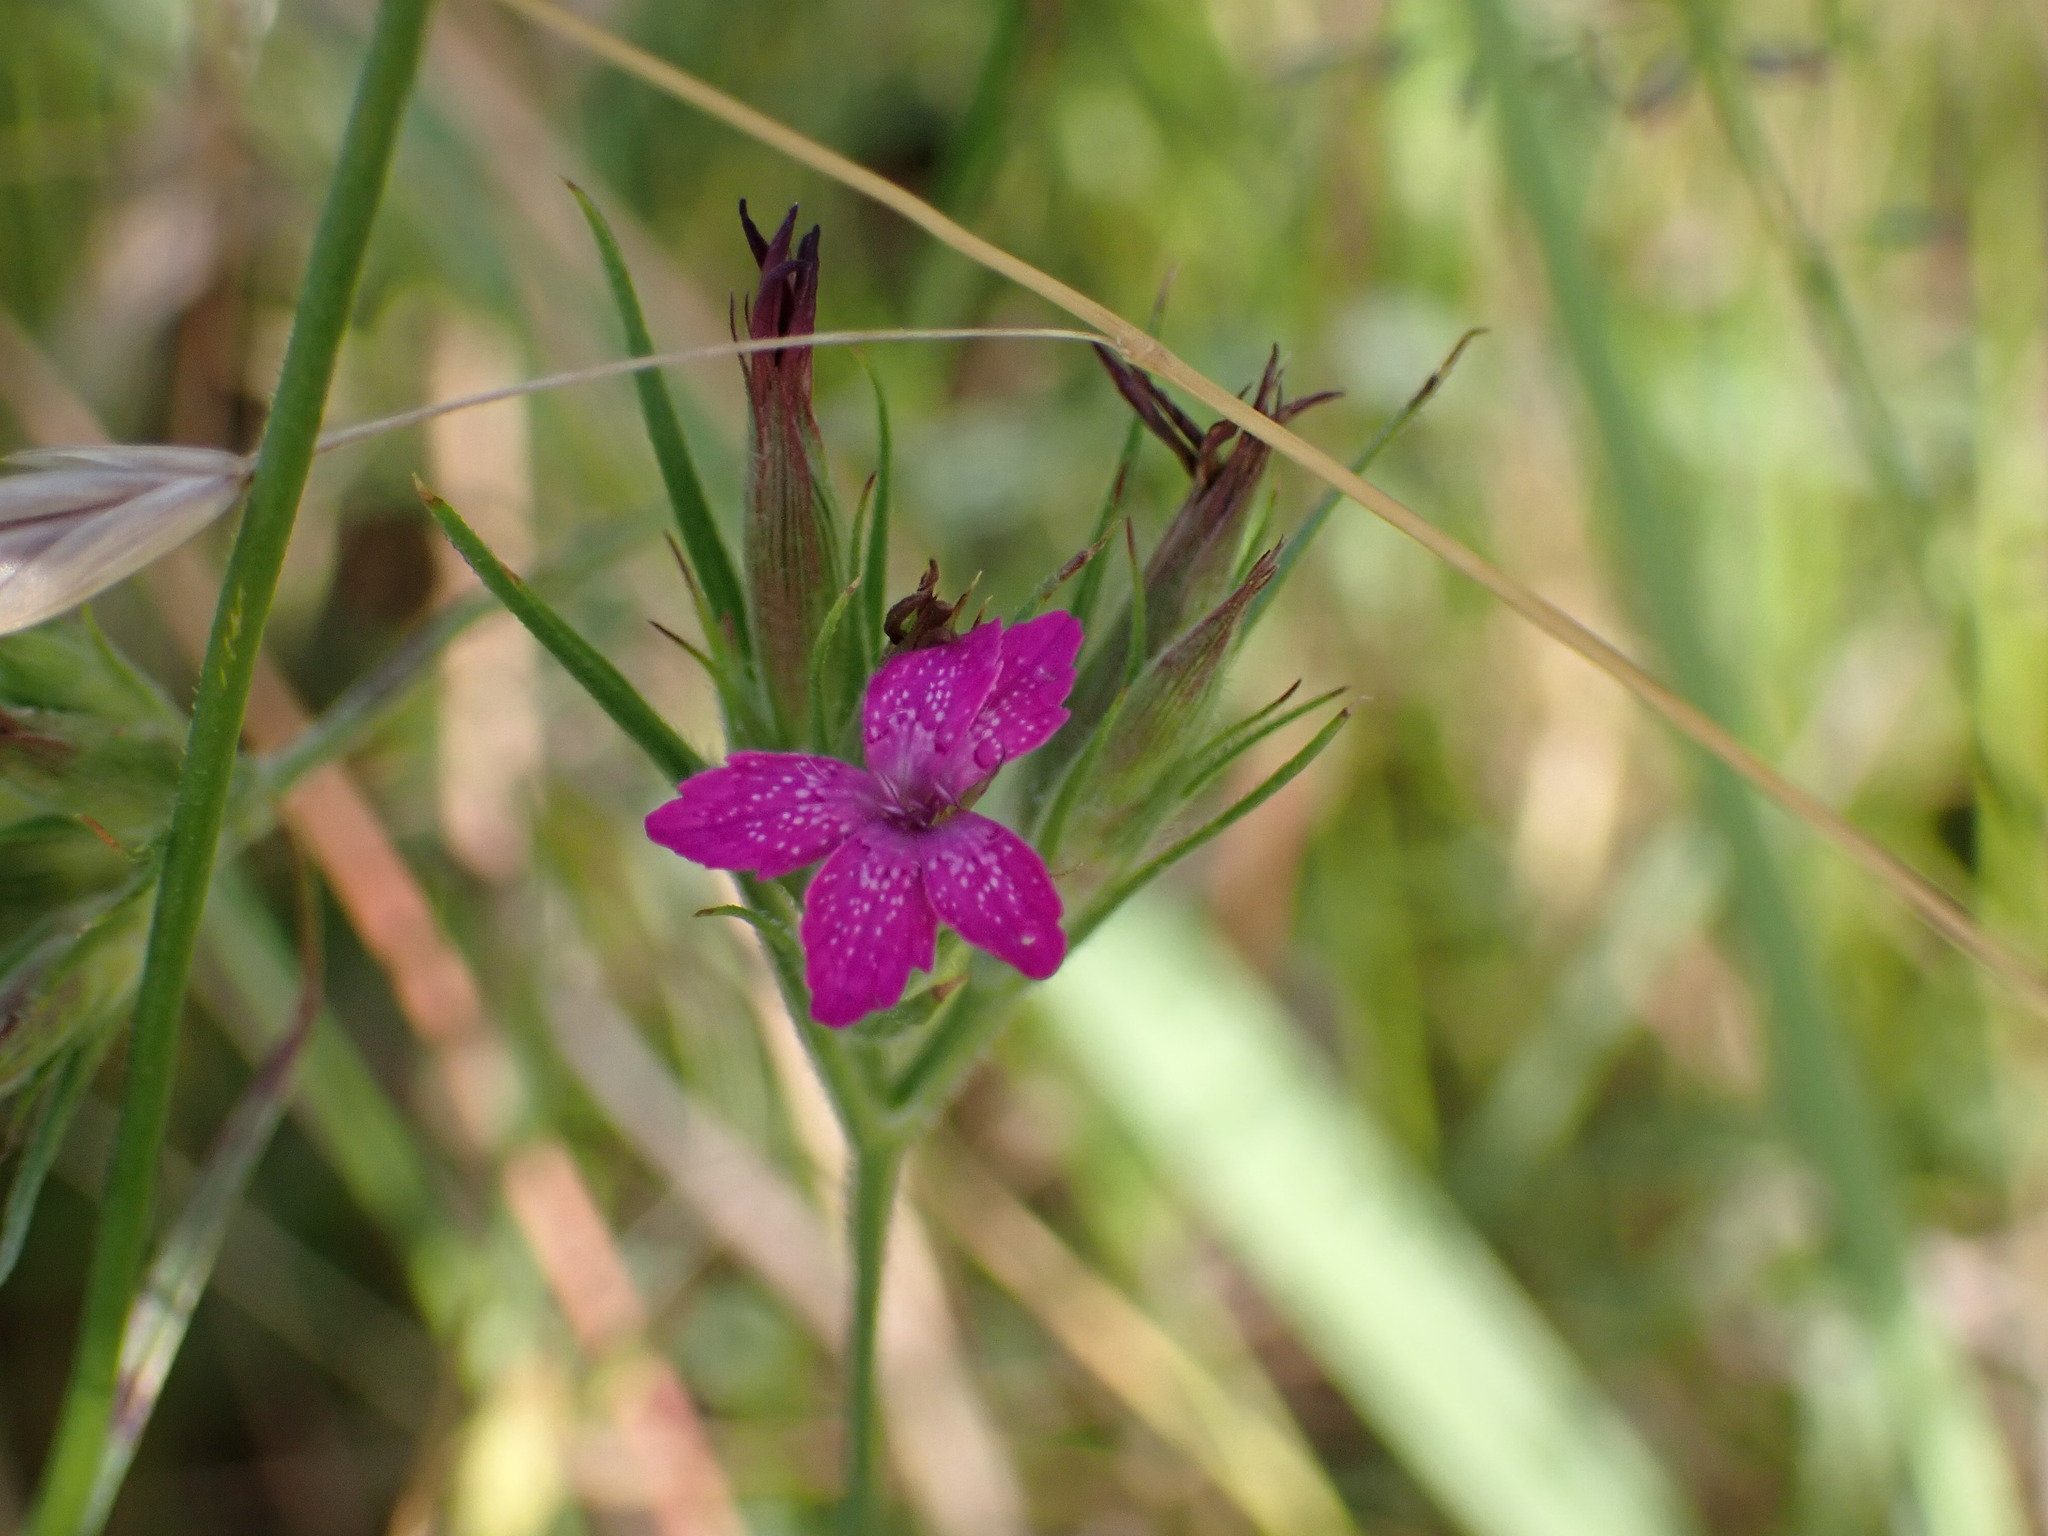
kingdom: Plantae
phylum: Tracheophyta
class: Magnoliopsida
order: Caryophyllales
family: Caryophyllaceae
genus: Dianthus
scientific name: Dianthus armeria
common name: Deptford pink
